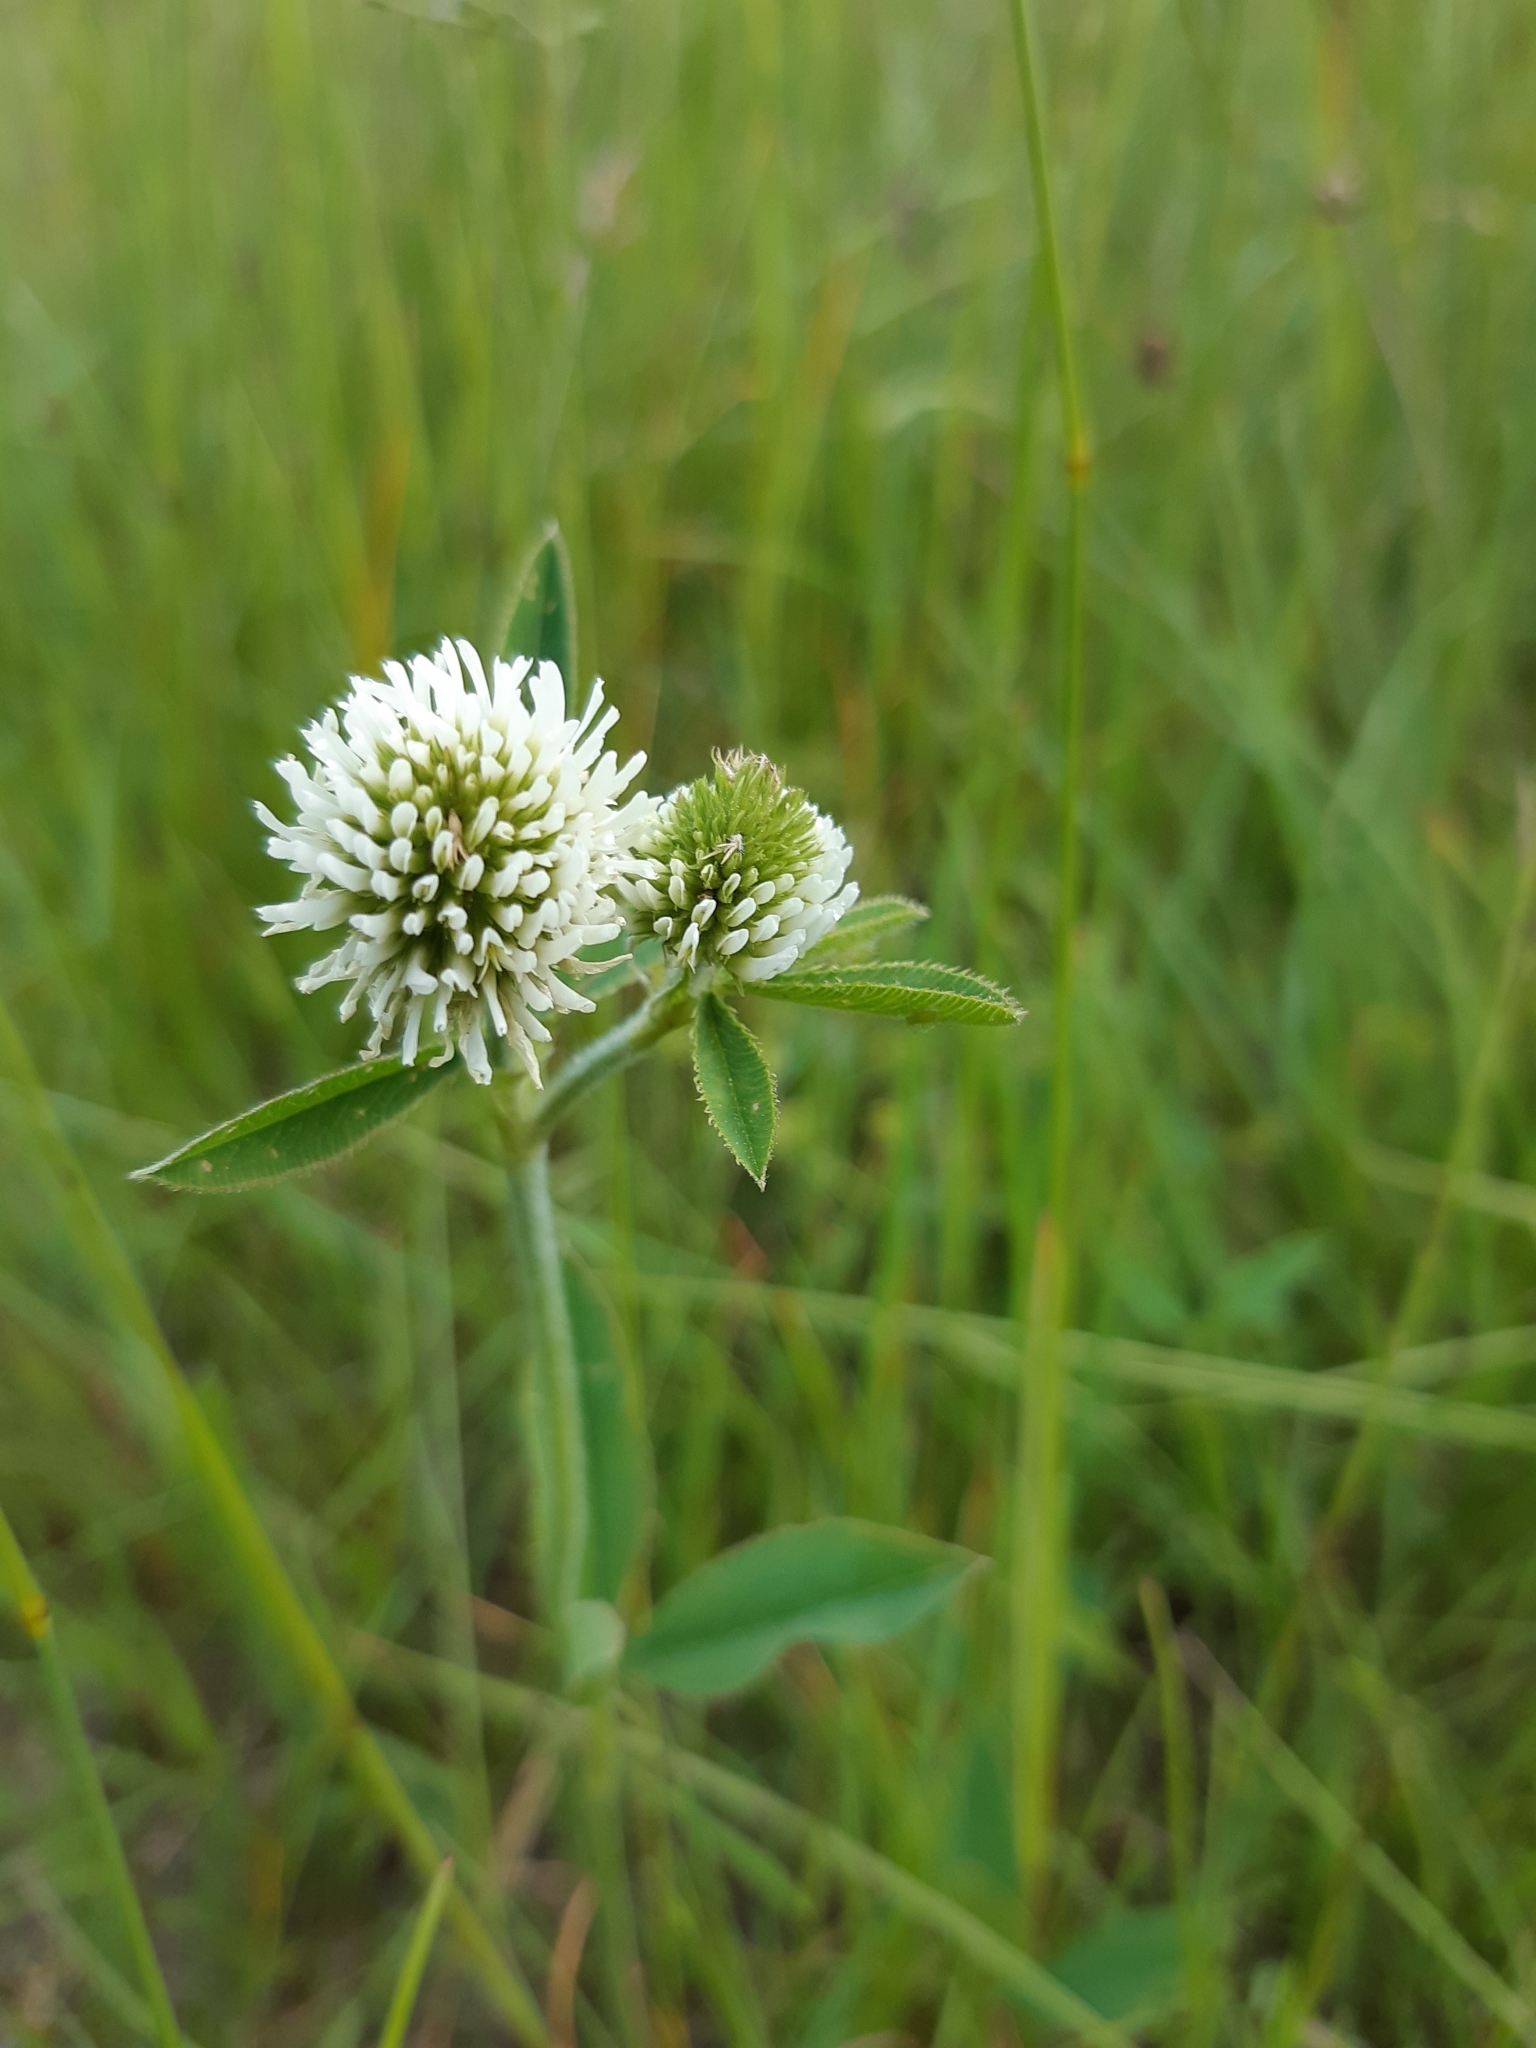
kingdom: Plantae
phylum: Tracheophyta
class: Magnoliopsida
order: Fabales
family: Fabaceae
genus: Trifolium
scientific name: Trifolium montanum
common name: Mountain clover
